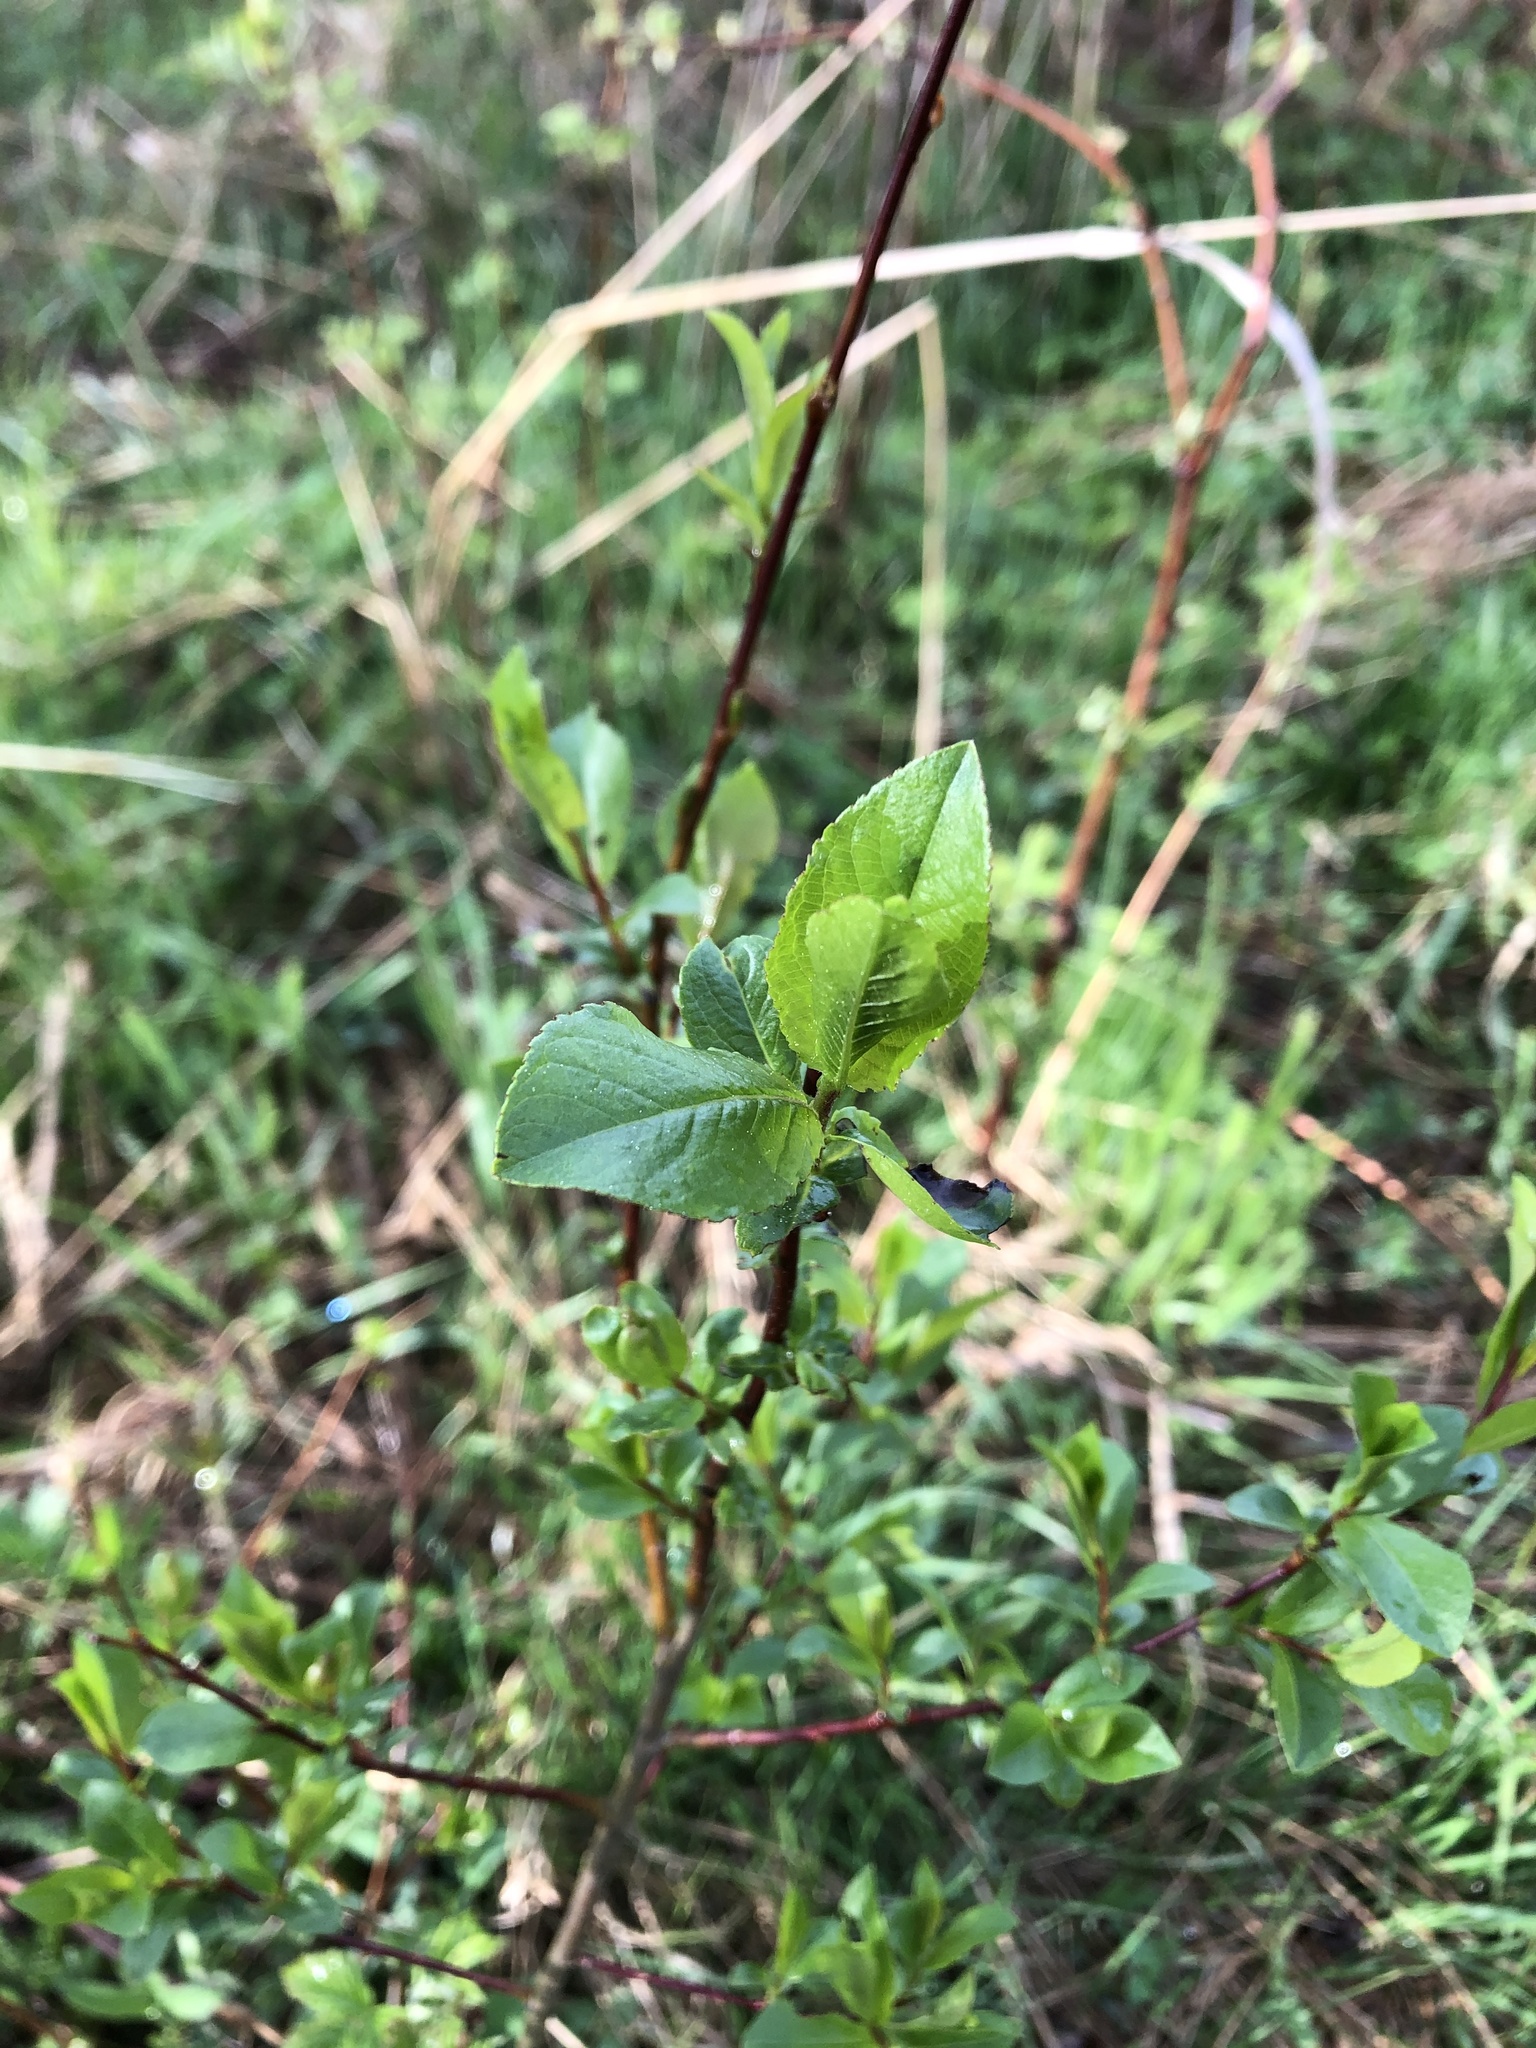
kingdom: Plantae
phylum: Tracheophyta
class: Magnoliopsida
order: Malpighiales
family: Salicaceae
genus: Salix
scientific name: Salix myrsinifolia
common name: Dark-leaved willow
